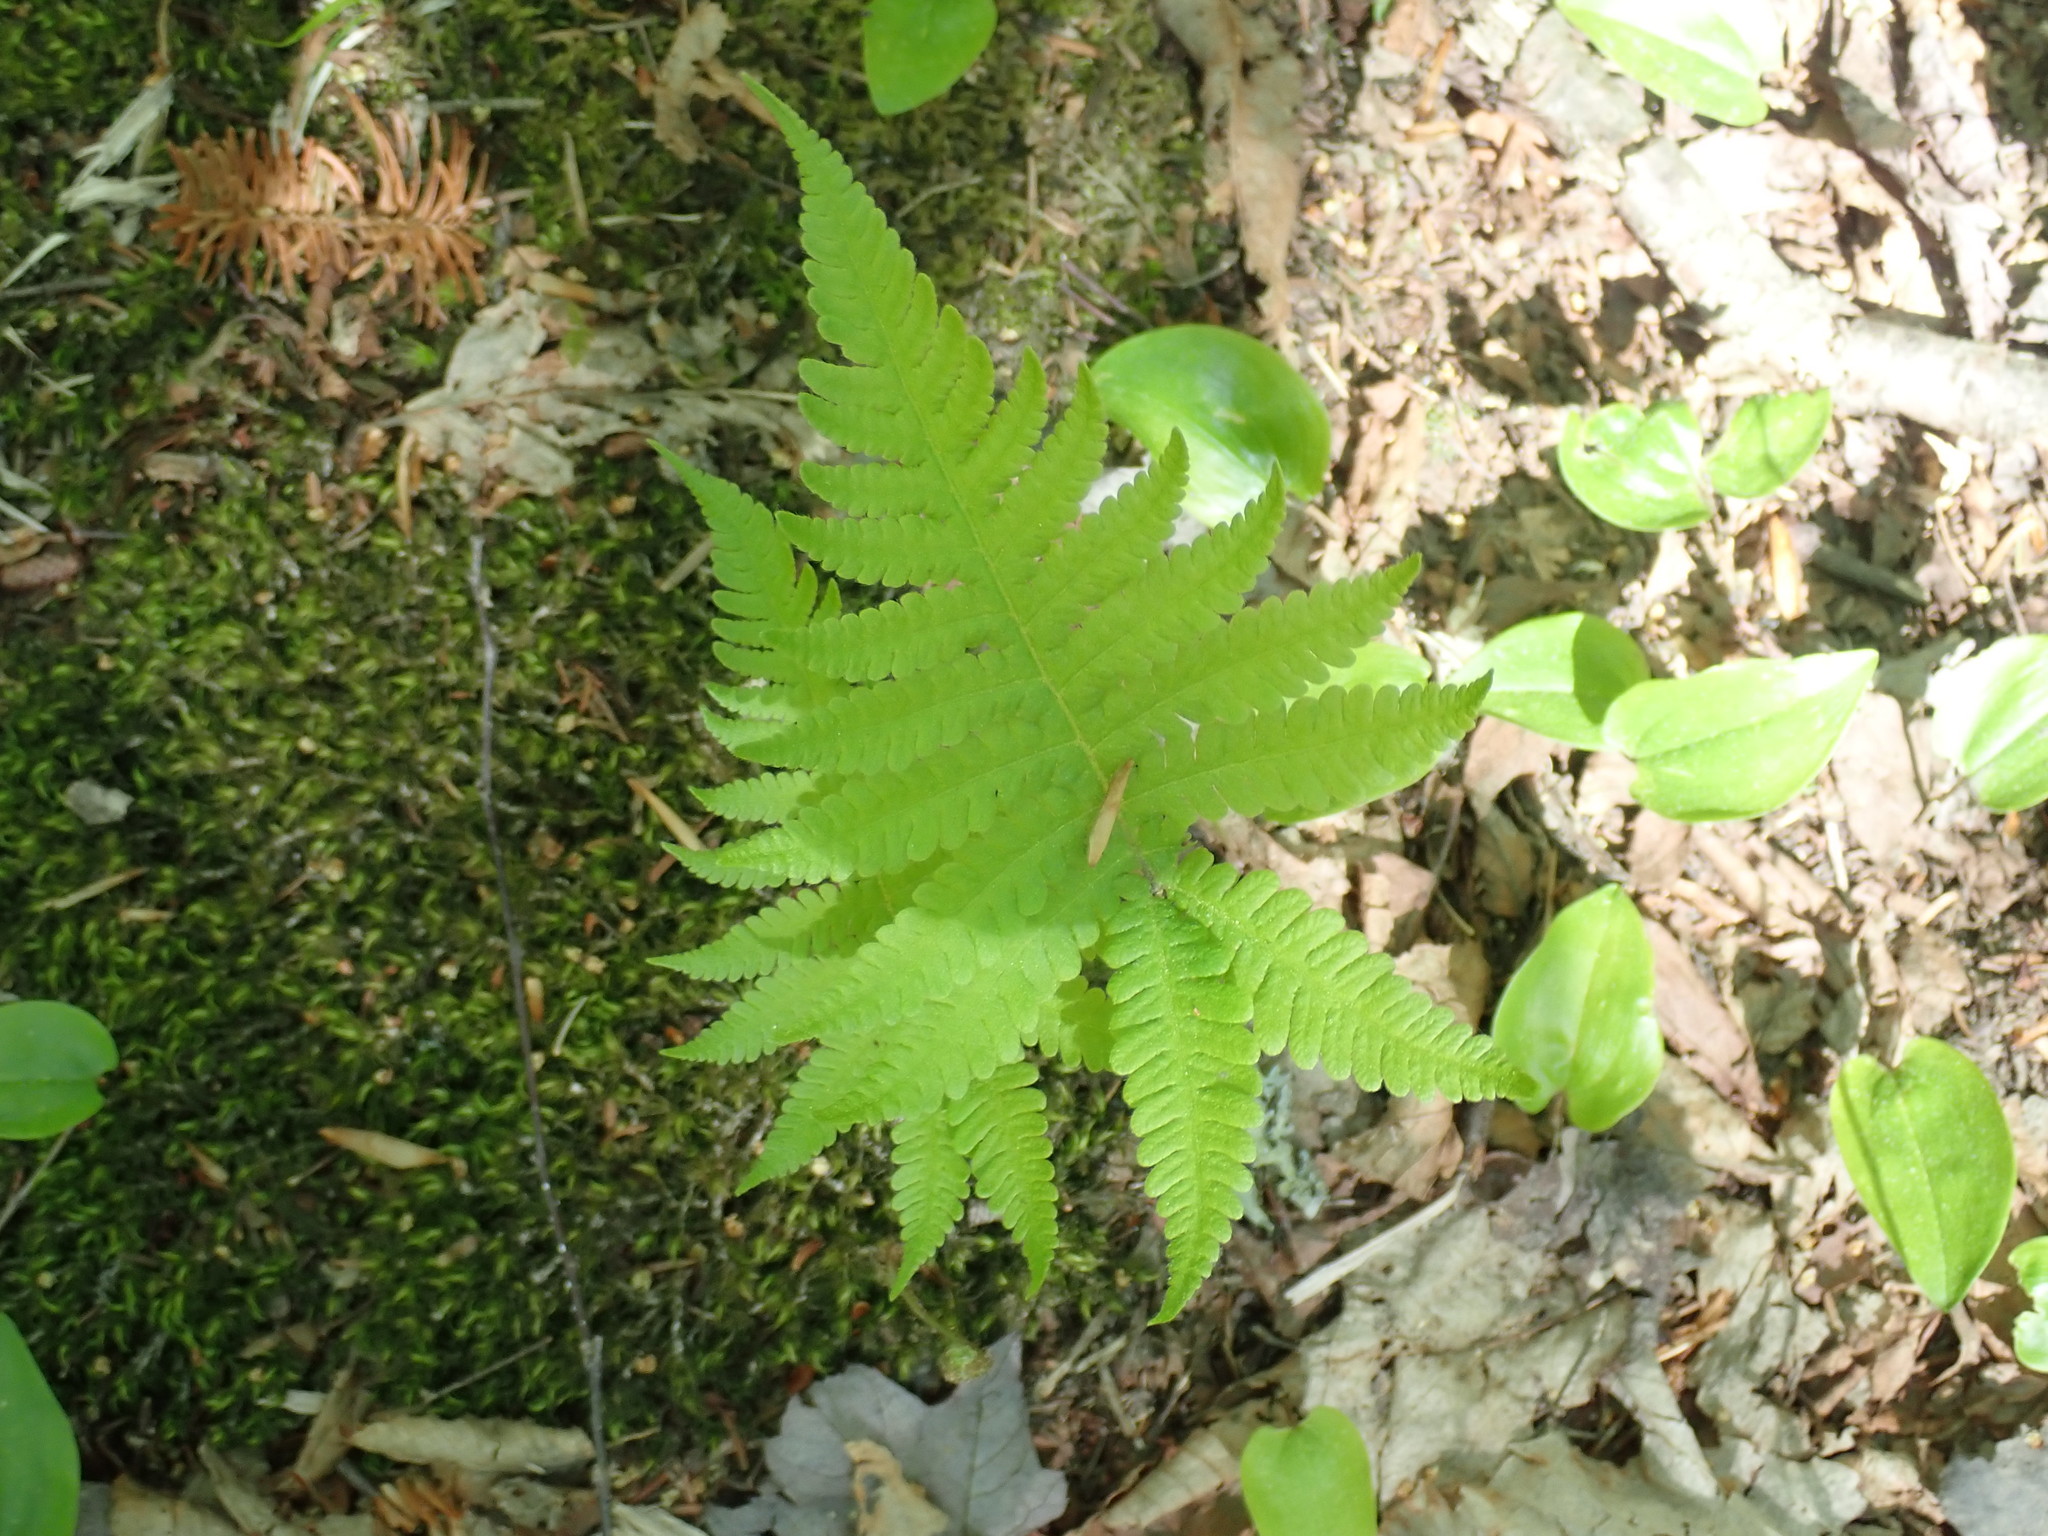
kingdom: Plantae
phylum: Tracheophyta
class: Polypodiopsida
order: Polypodiales
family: Thelypteridaceae
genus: Phegopteris
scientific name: Phegopteris connectilis
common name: Beech fern
